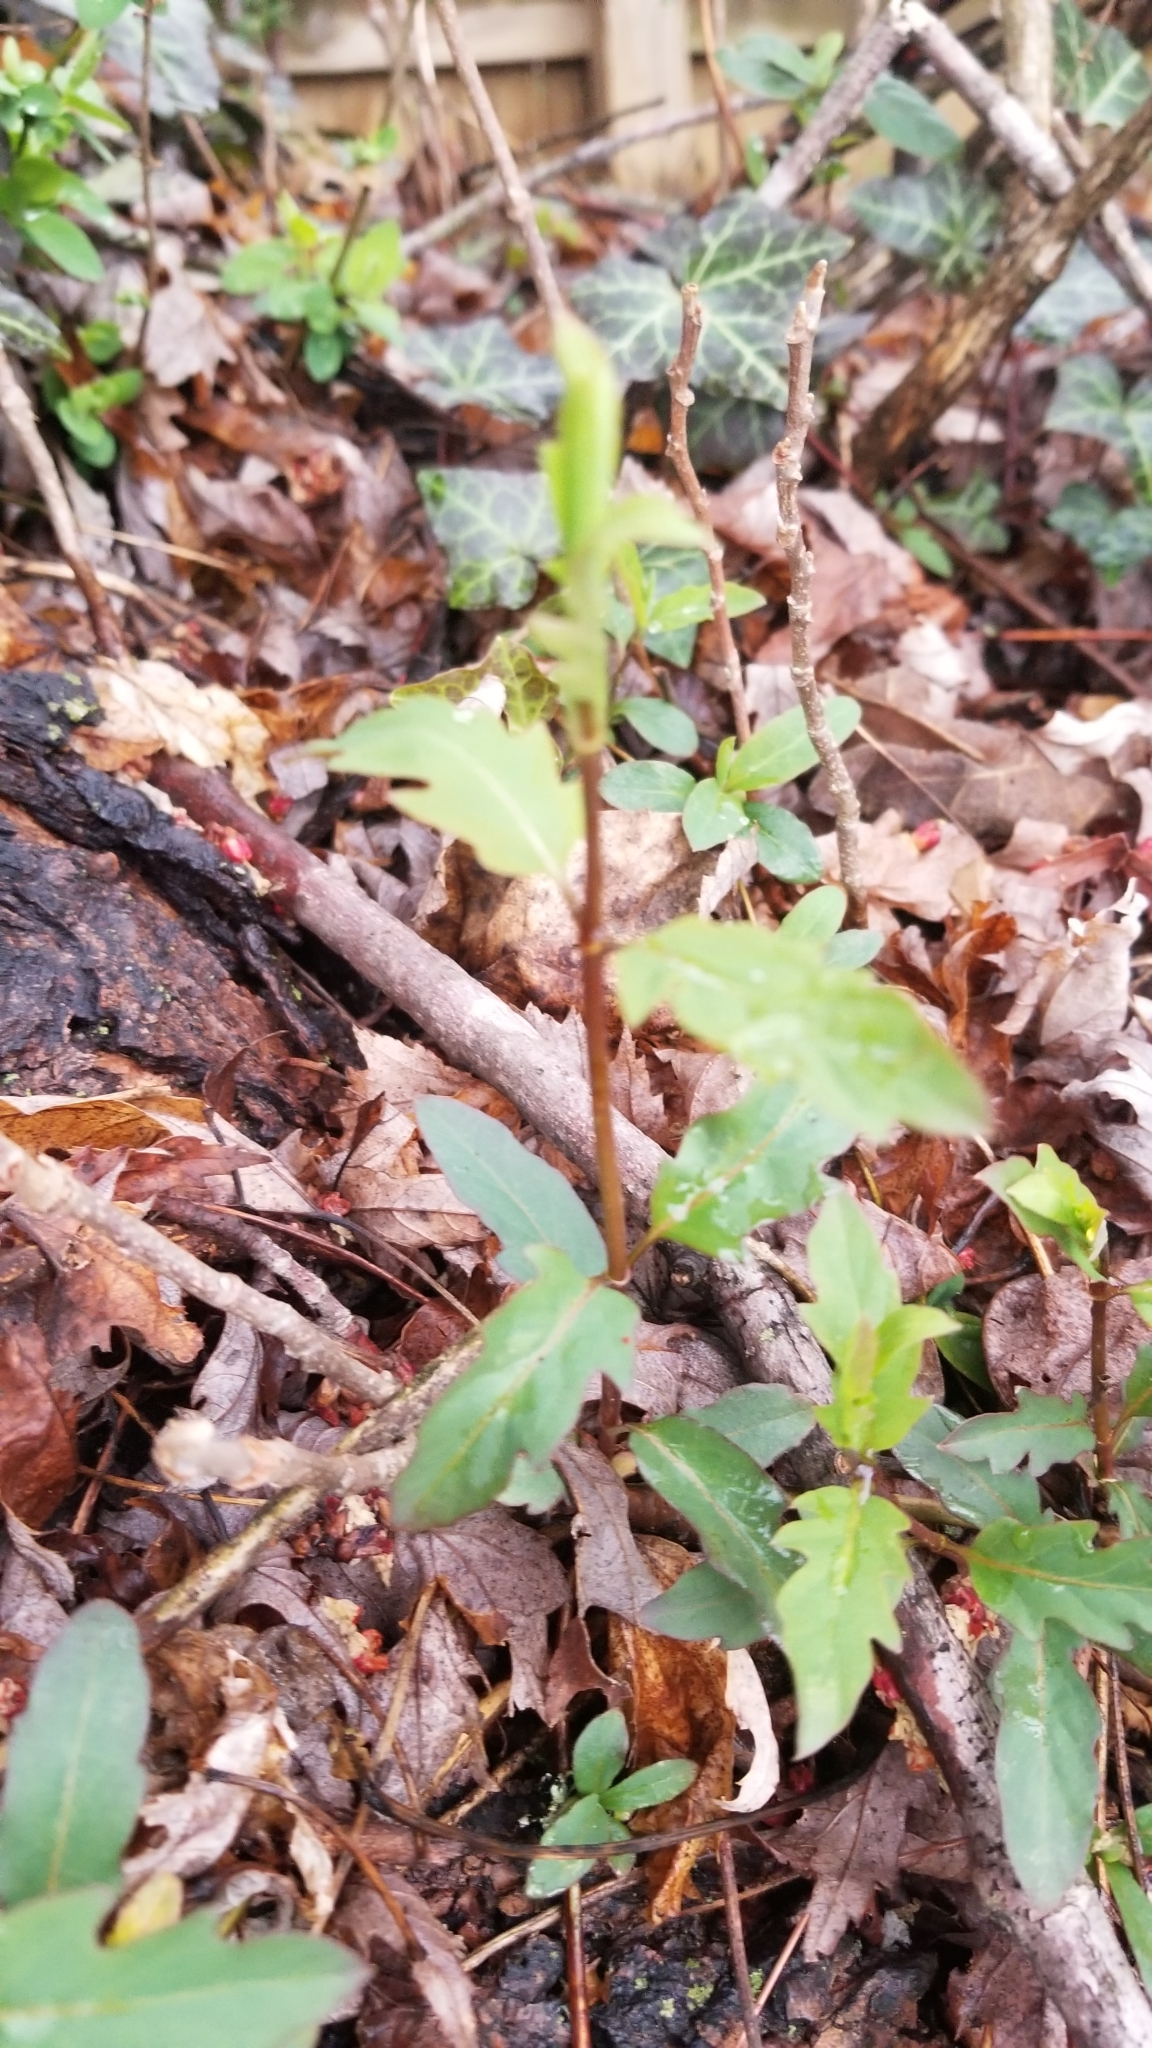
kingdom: Plantae
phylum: Tracheophyta
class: Magnoliopsida
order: Dipsacales
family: Caprifoliaceae
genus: Lonicera
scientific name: Lonicera japonica
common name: Japanese honeysuckle
